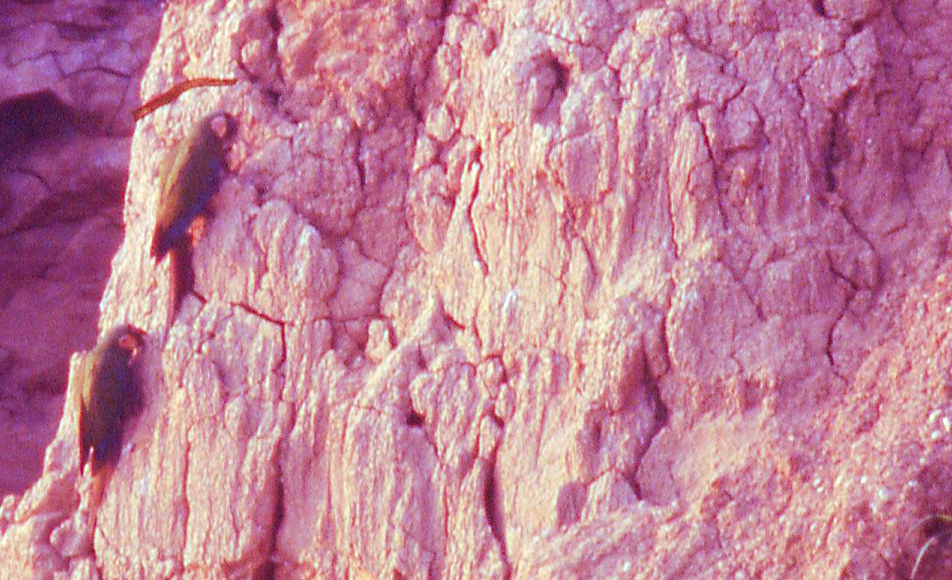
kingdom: Animalia
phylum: Chordata
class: Aves
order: Psittaciformes
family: Psittacidae
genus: Ara
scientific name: Ara severus
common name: Chestnut-fronted macaw
